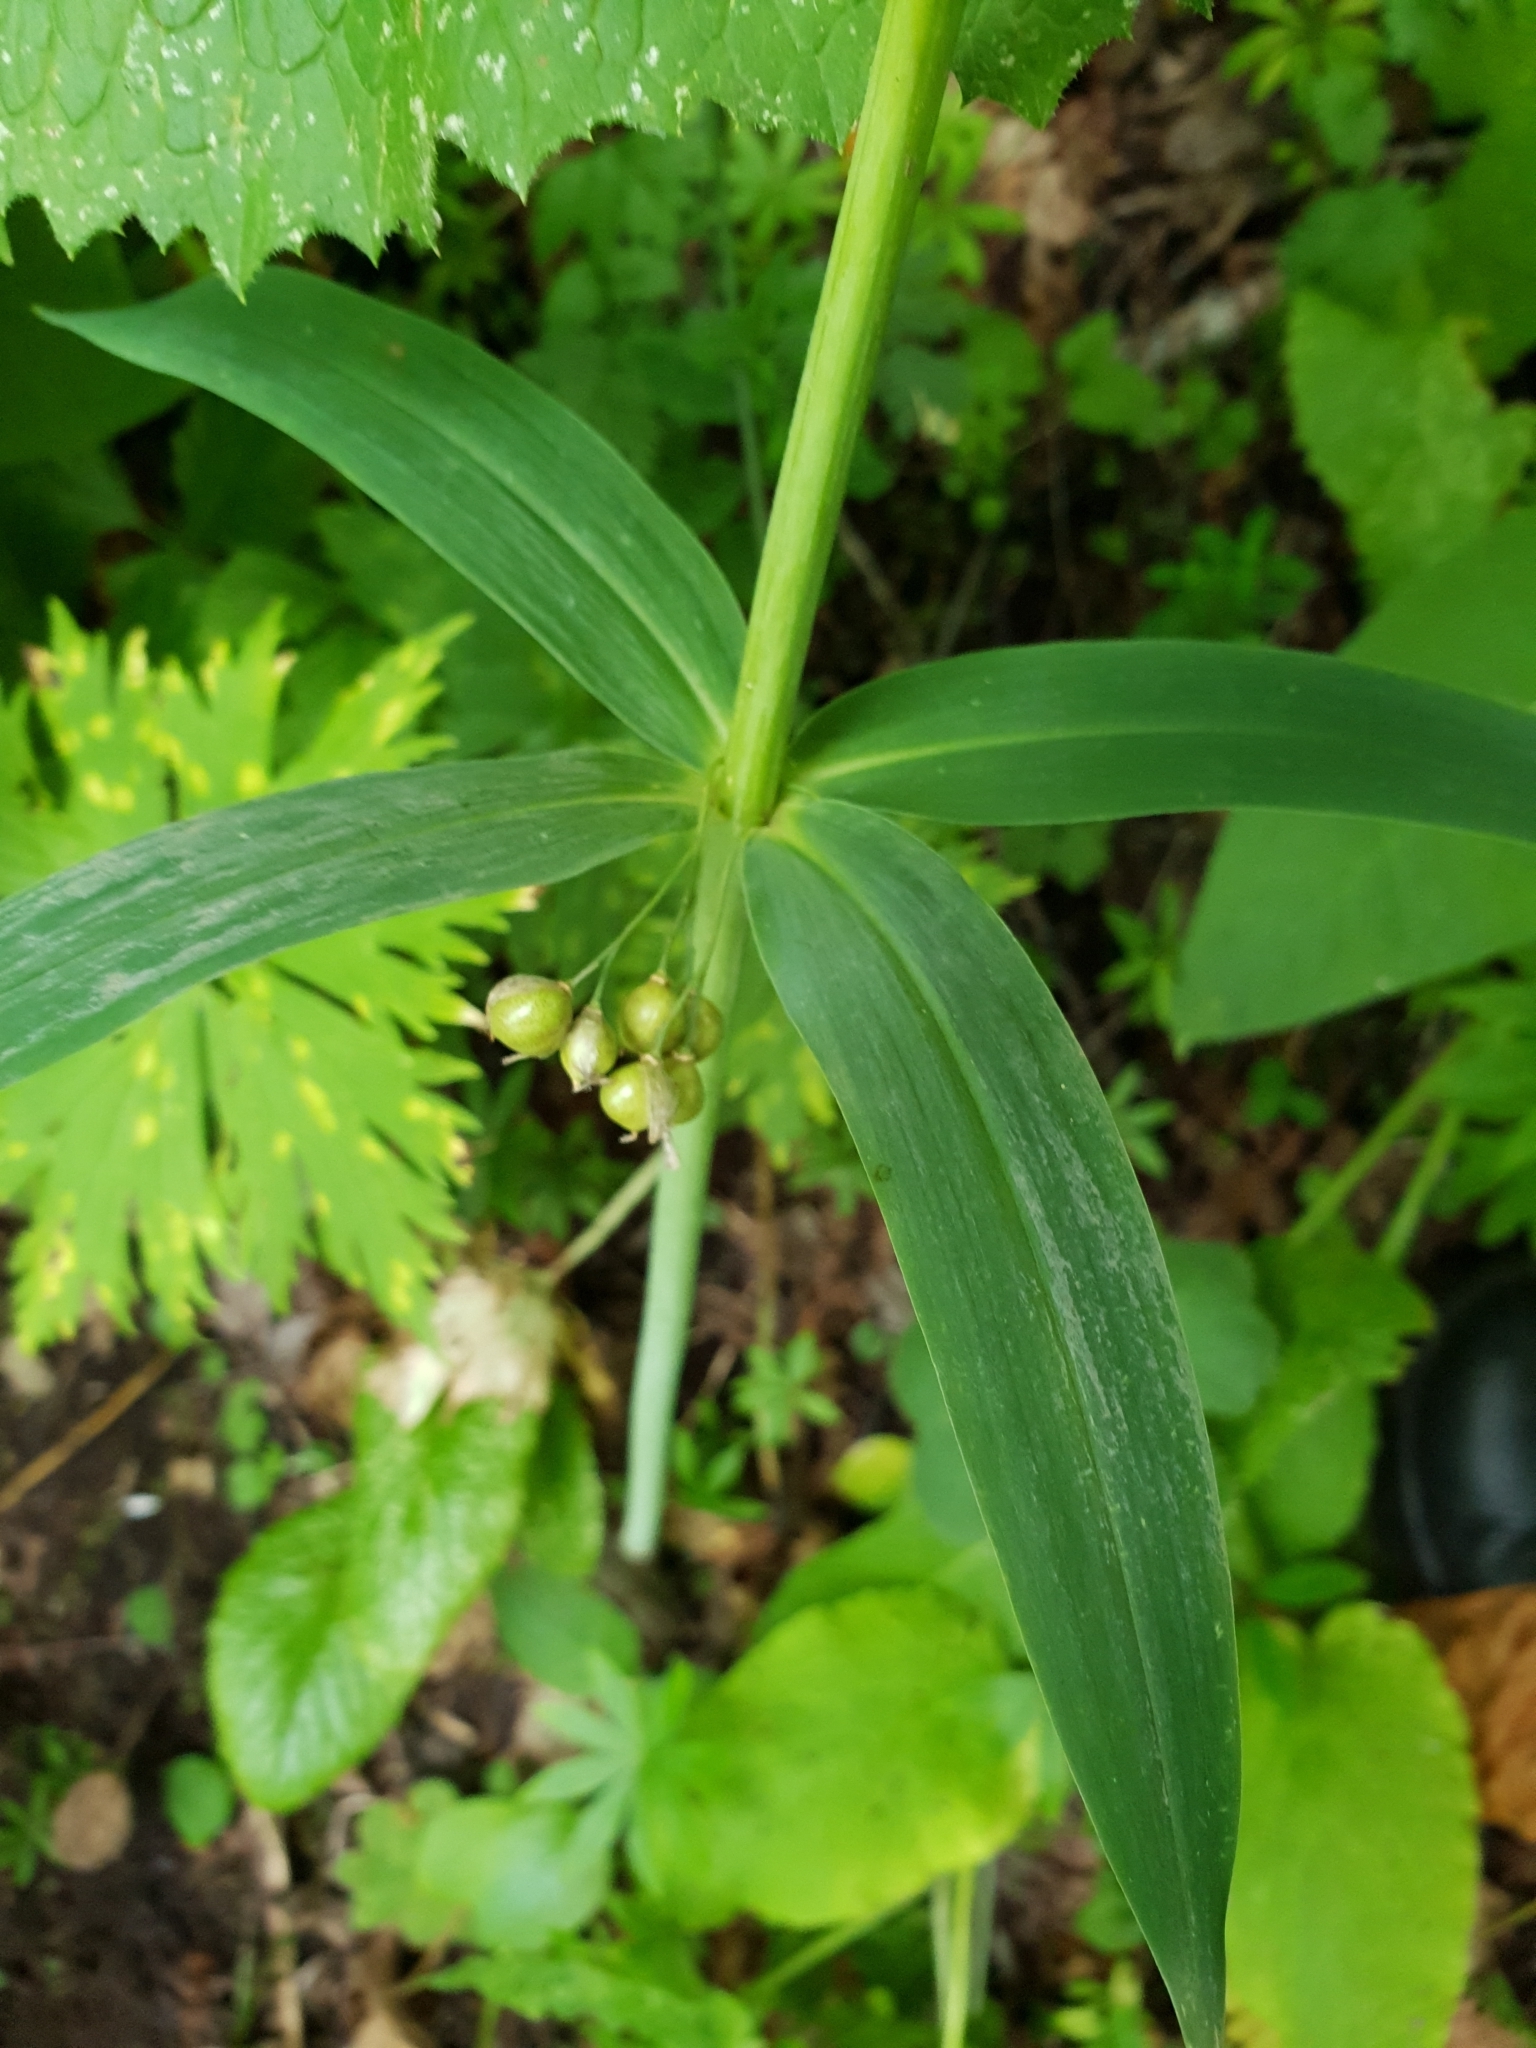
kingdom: Plantae
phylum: Tracheophyta
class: Liliopsida
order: Asparagales
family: Asparagaceae
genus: Polygonatum
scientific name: Polygonatum verticillatum
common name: Whorled solomon's-seal
